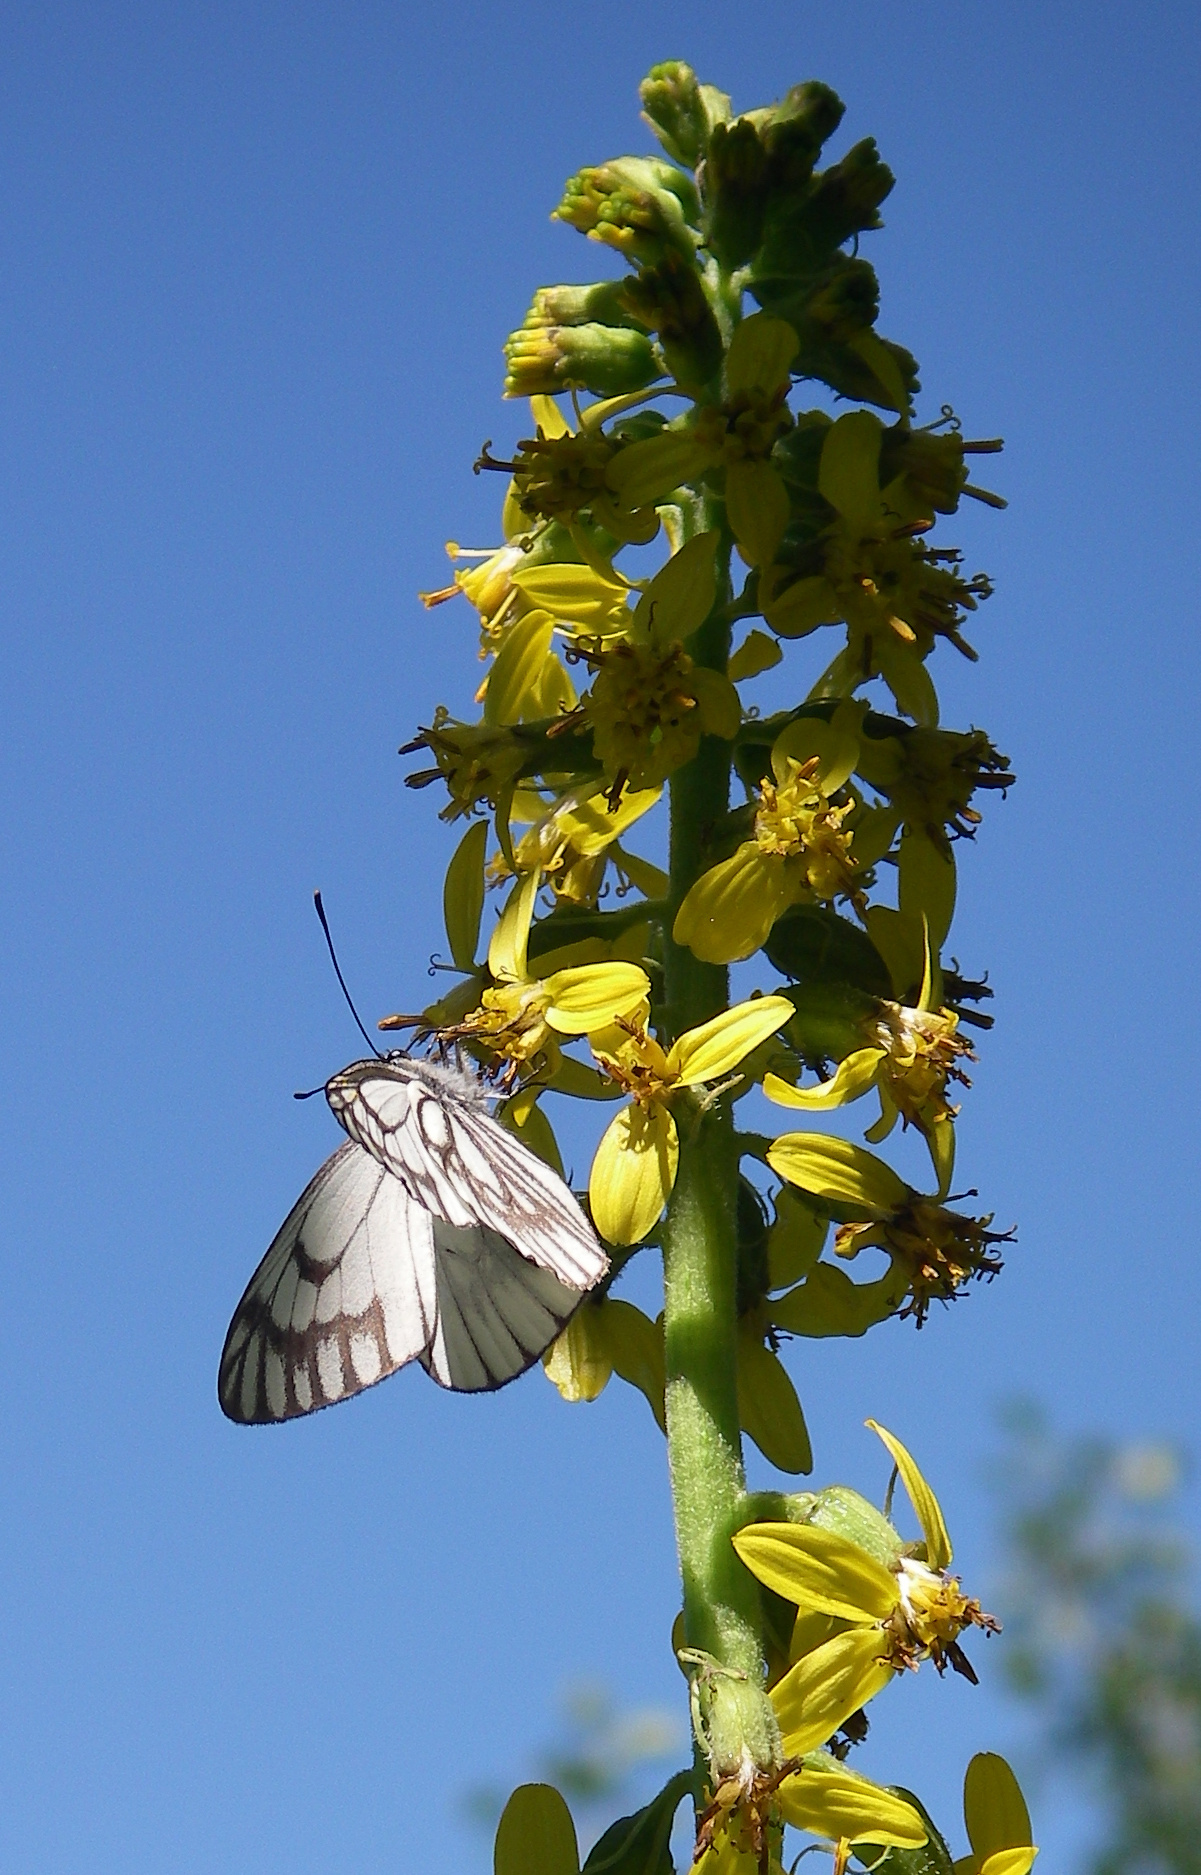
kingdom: Plantae
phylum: Tracheophyta
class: Magnoliopsida
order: Asterales
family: Asteraceae
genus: Ligularia
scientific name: Ligularia heterophylla
